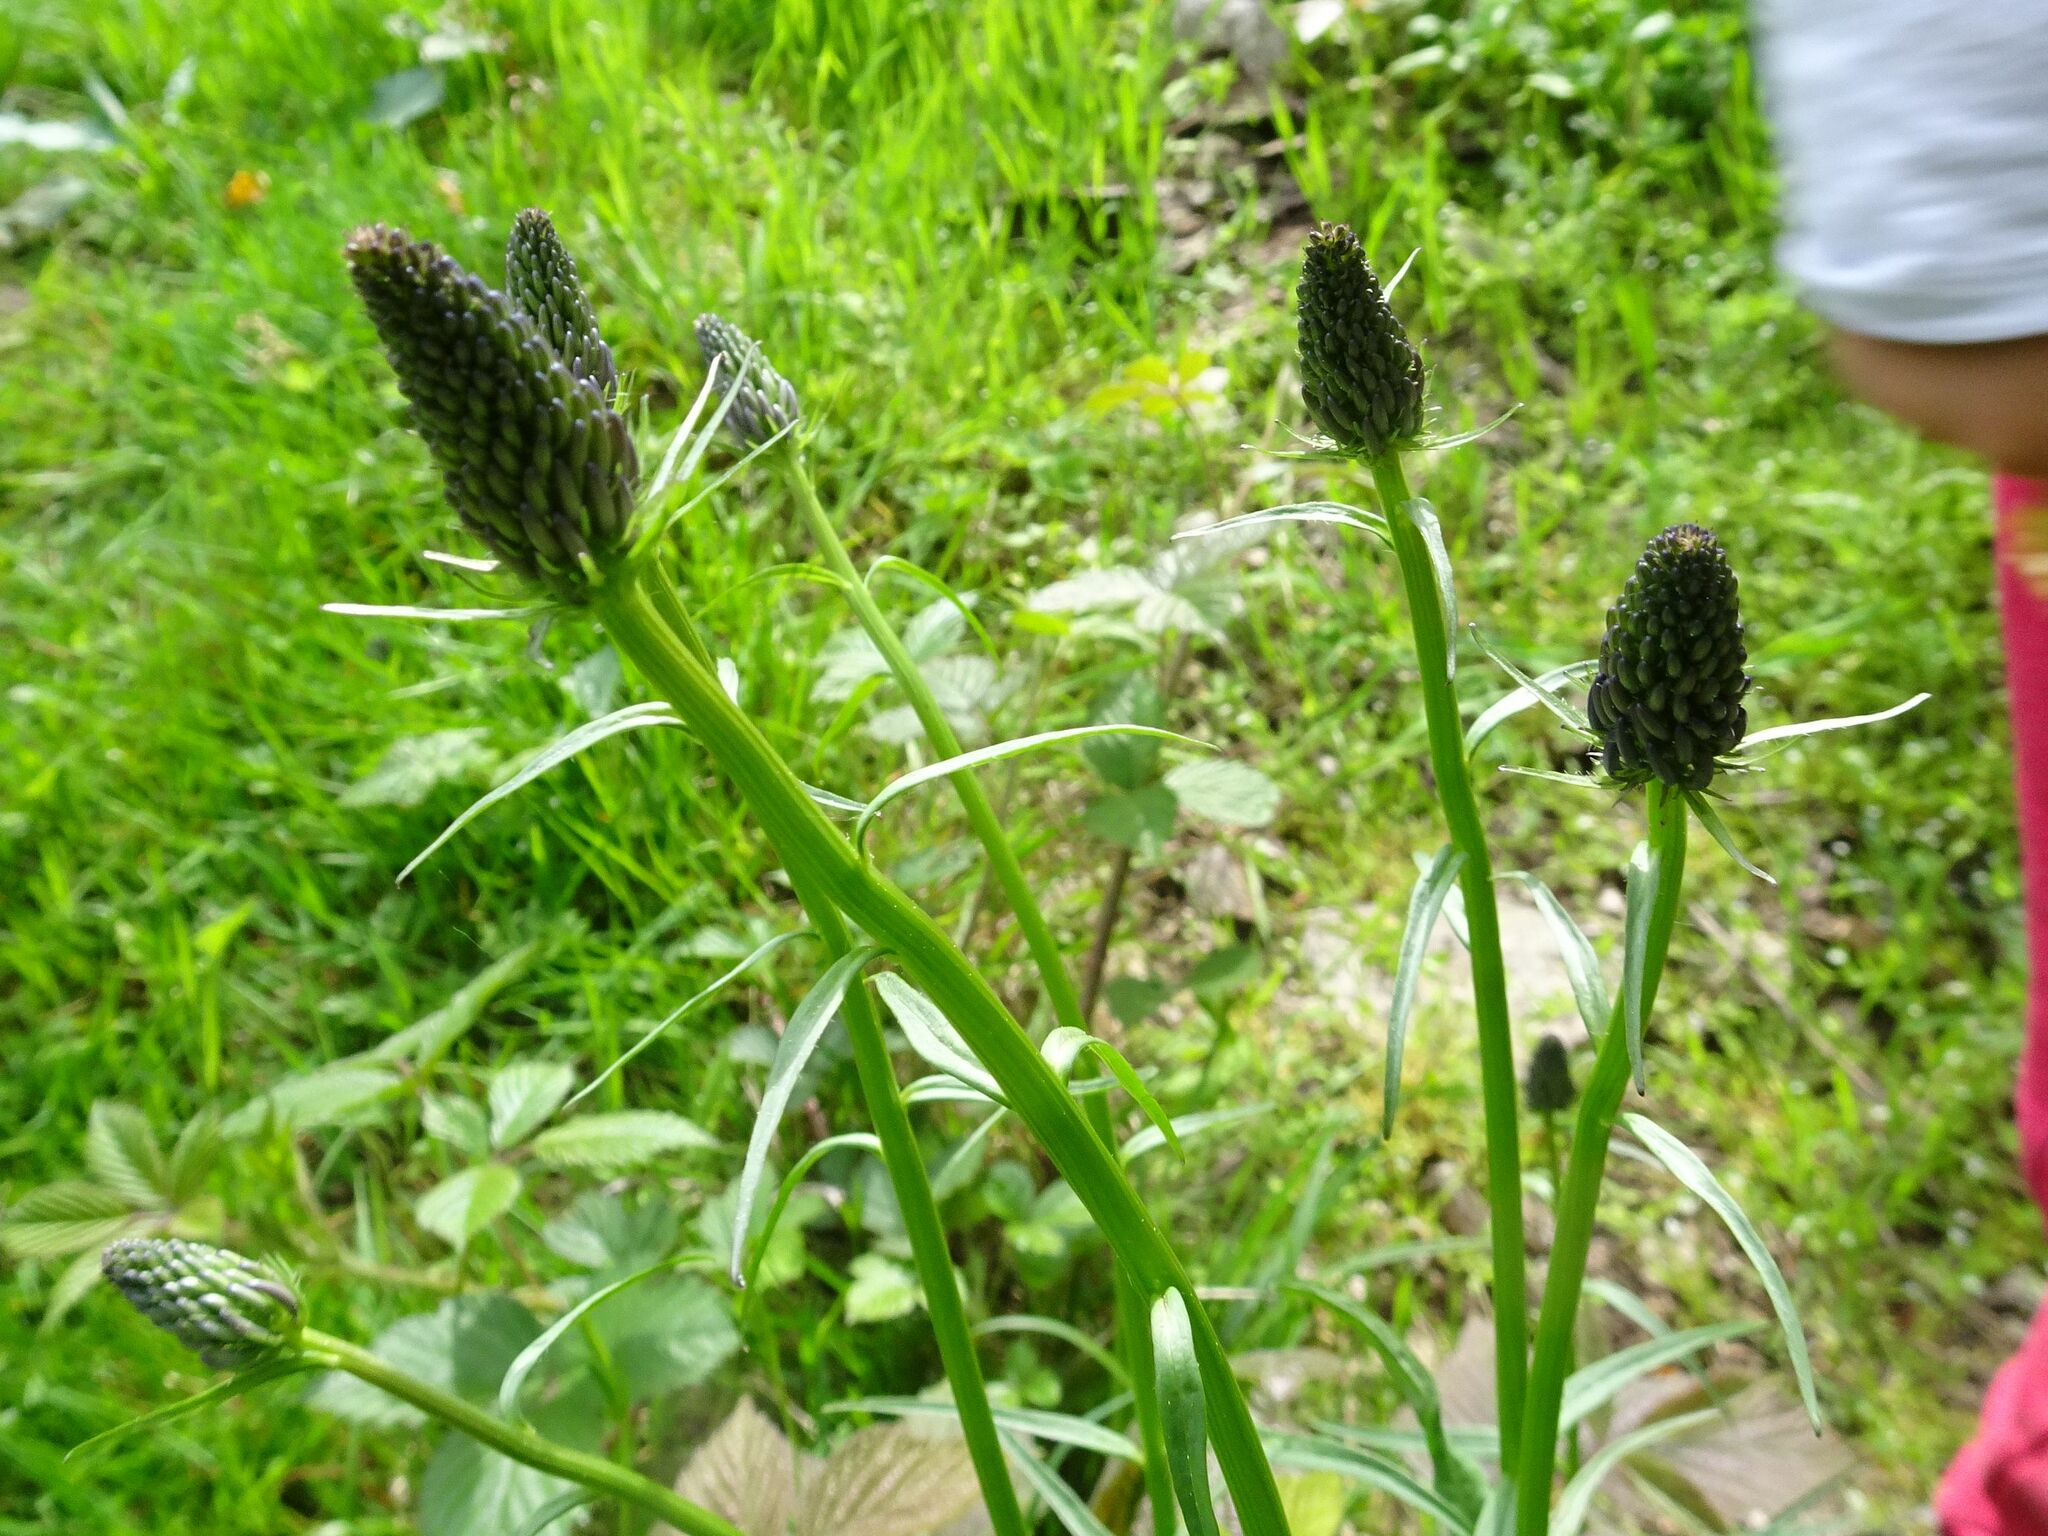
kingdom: Plantae
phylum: Tracheophyta
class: Magnoliopsida
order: Asterales
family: Campanulaceae
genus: Phyteuma
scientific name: Phyteuma nigrum
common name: Black rampion
